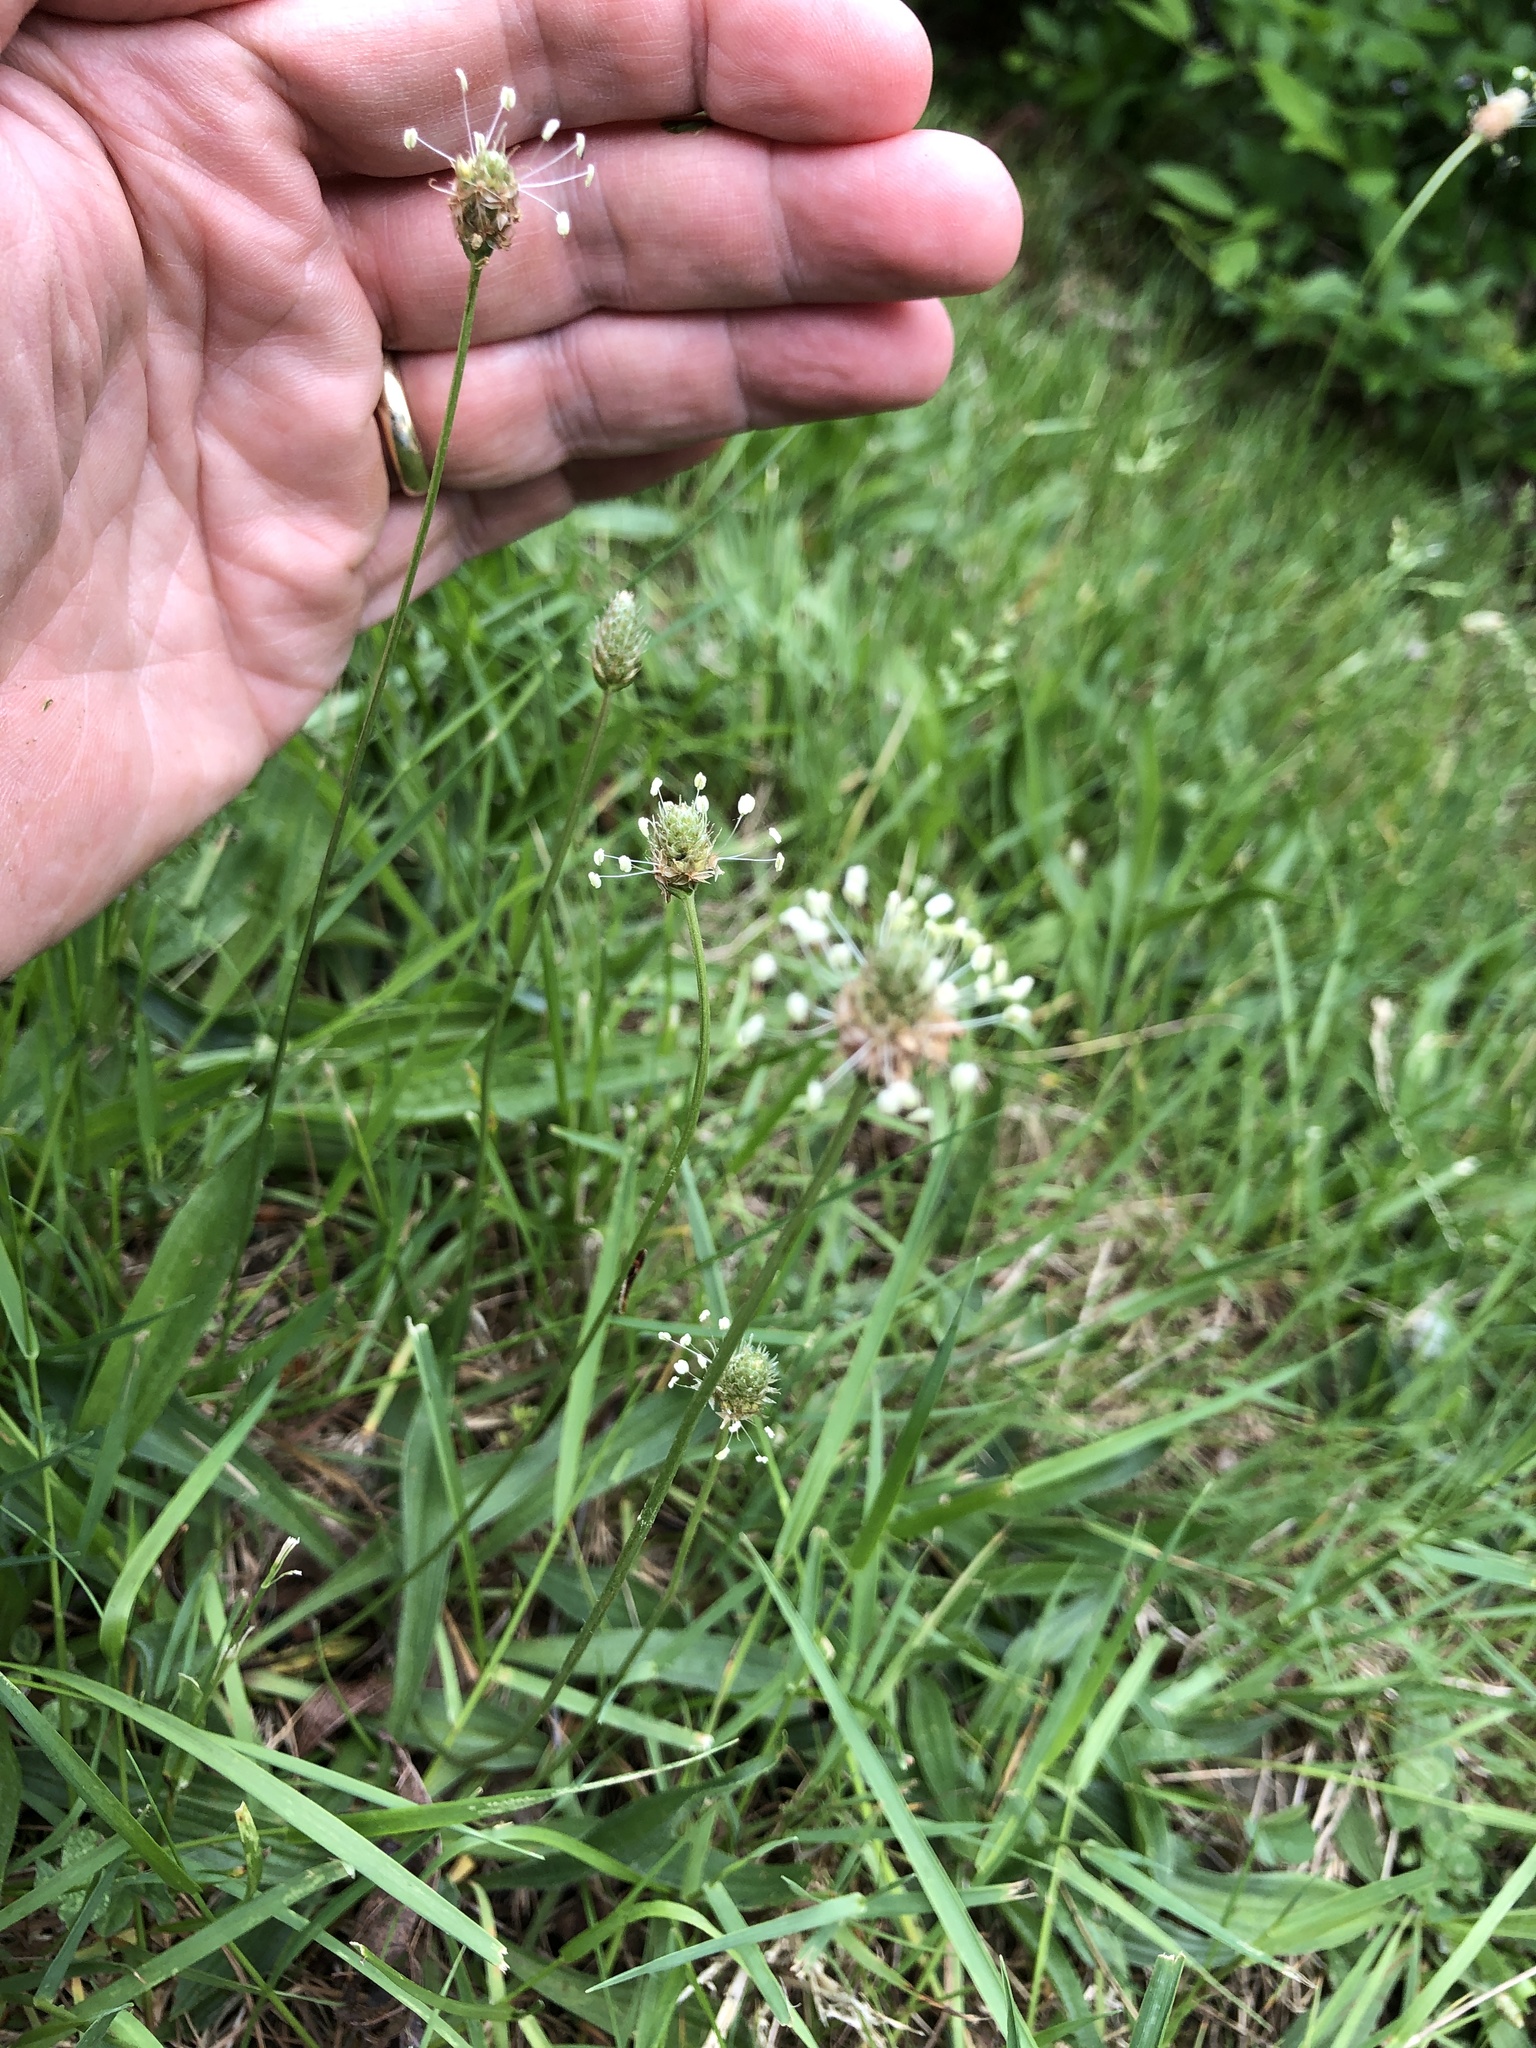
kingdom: Plantae
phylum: Tracheophyta
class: Magnoliopsida
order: Lamiales
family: Plantaginaceae
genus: Plantago
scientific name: Plantago lanceolata
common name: Ribwort plantain
